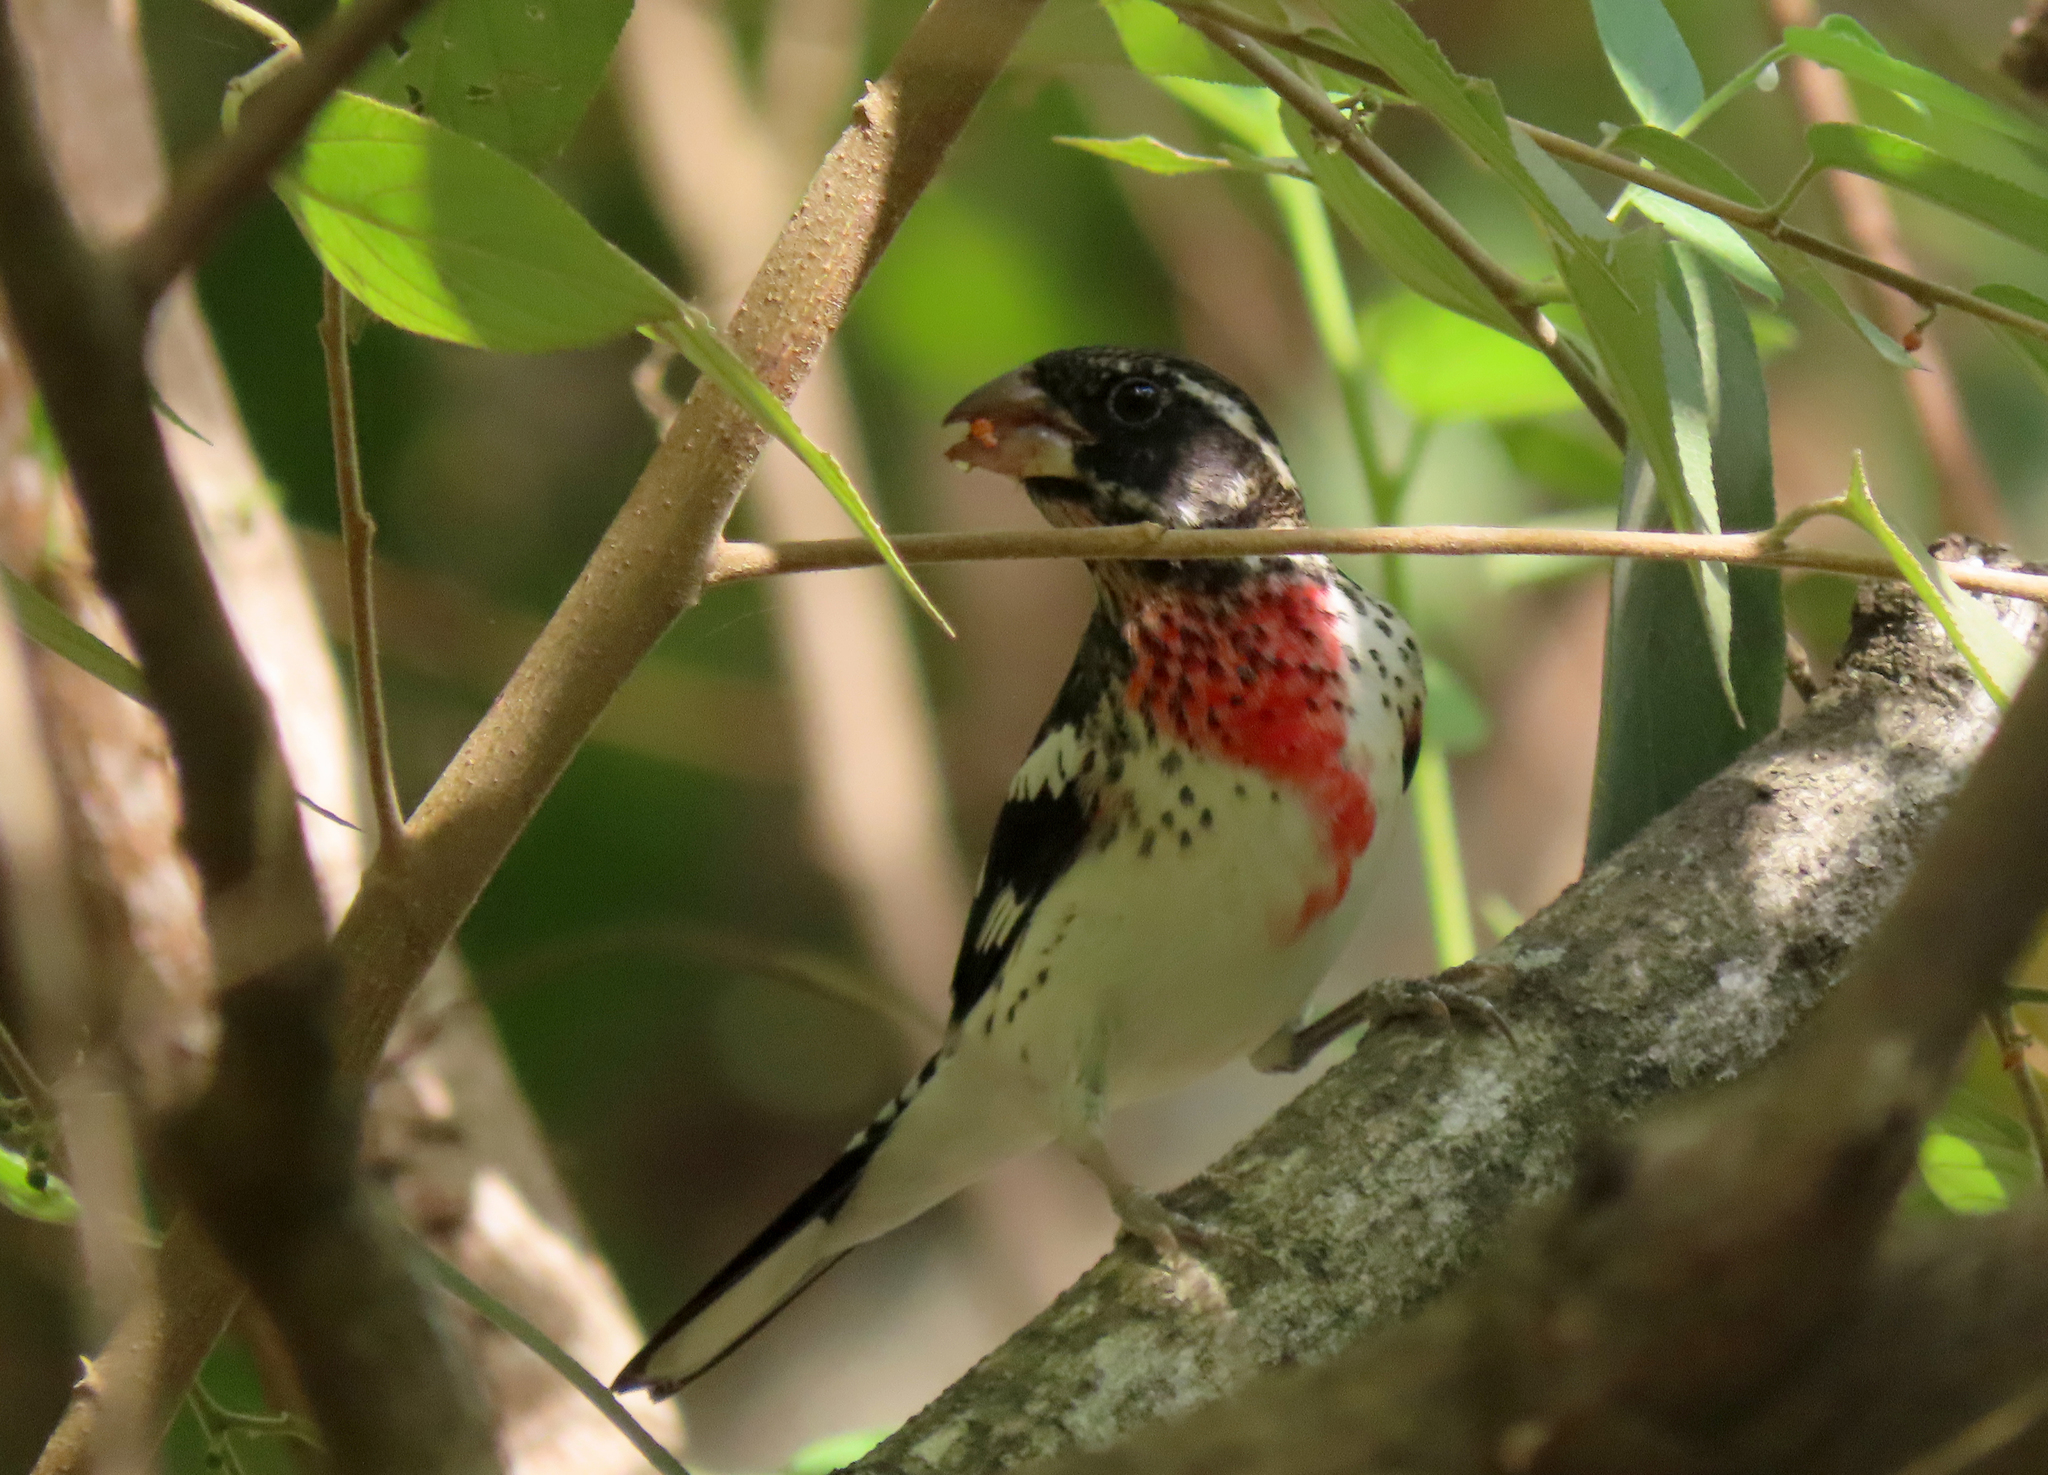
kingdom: Animalia
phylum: Chordata
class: Aves
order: Passeriformes
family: Cardinalidae
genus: Pheucticus
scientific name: Pheucticus ludovicianus
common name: Rose-breasted grosbeak
